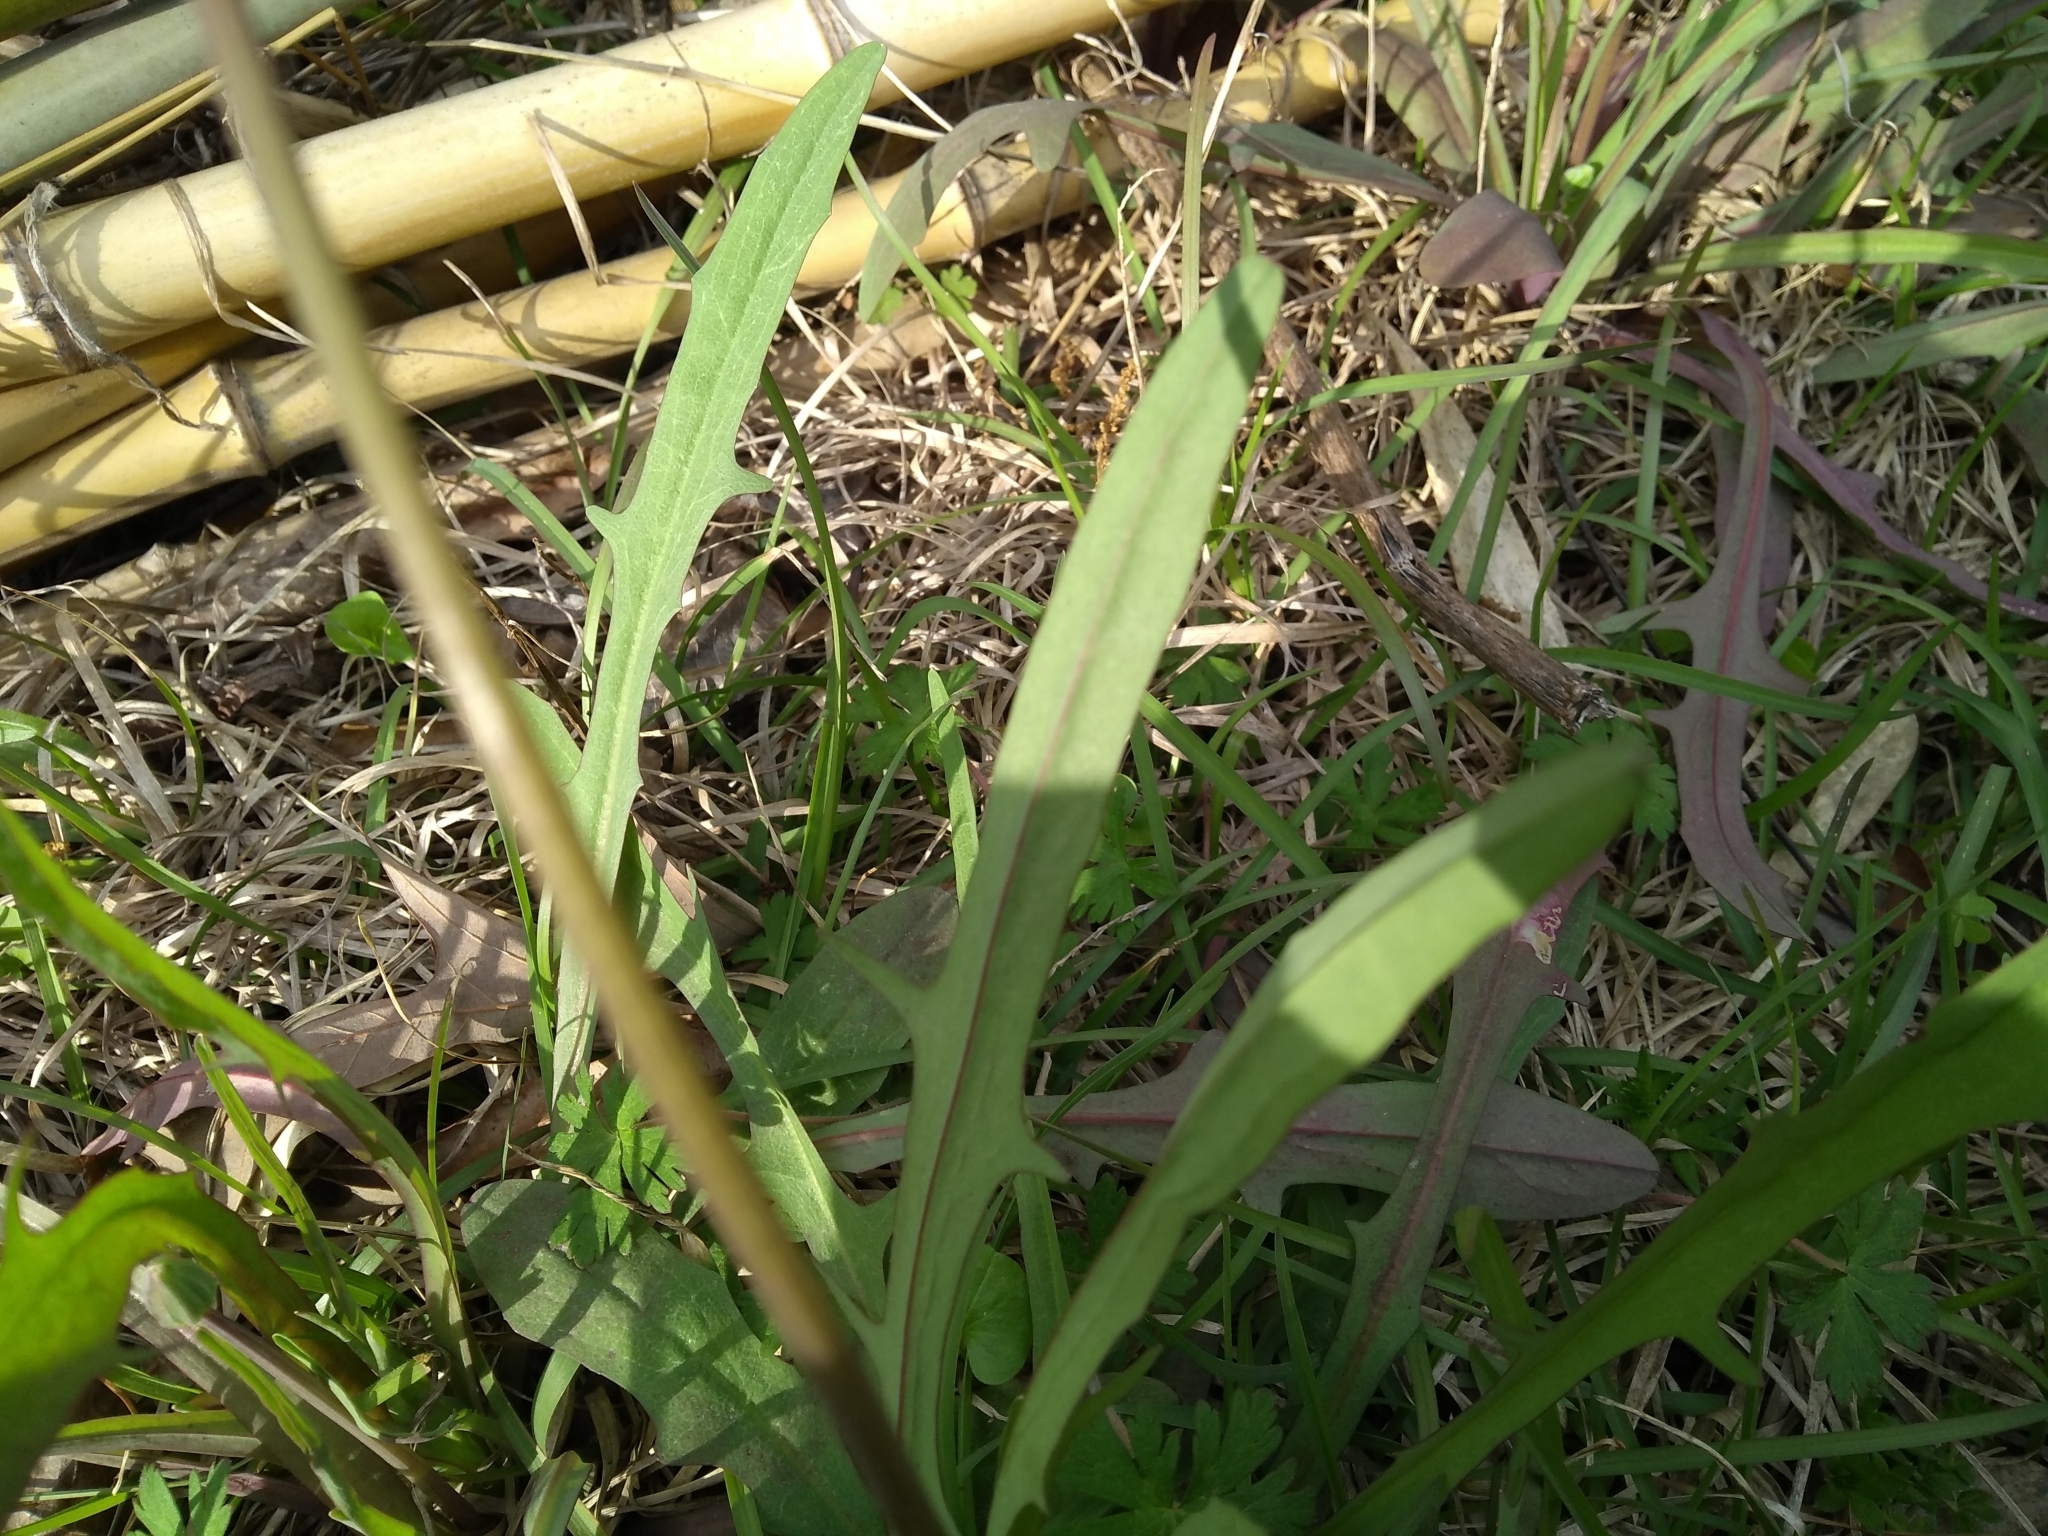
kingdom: Plantae
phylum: Tracheophyta
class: Magnoliopsida
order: Asterales
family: Asteraceae
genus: Krigia
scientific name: Krigia dandelion
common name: Colonial dwarf-dandelion
